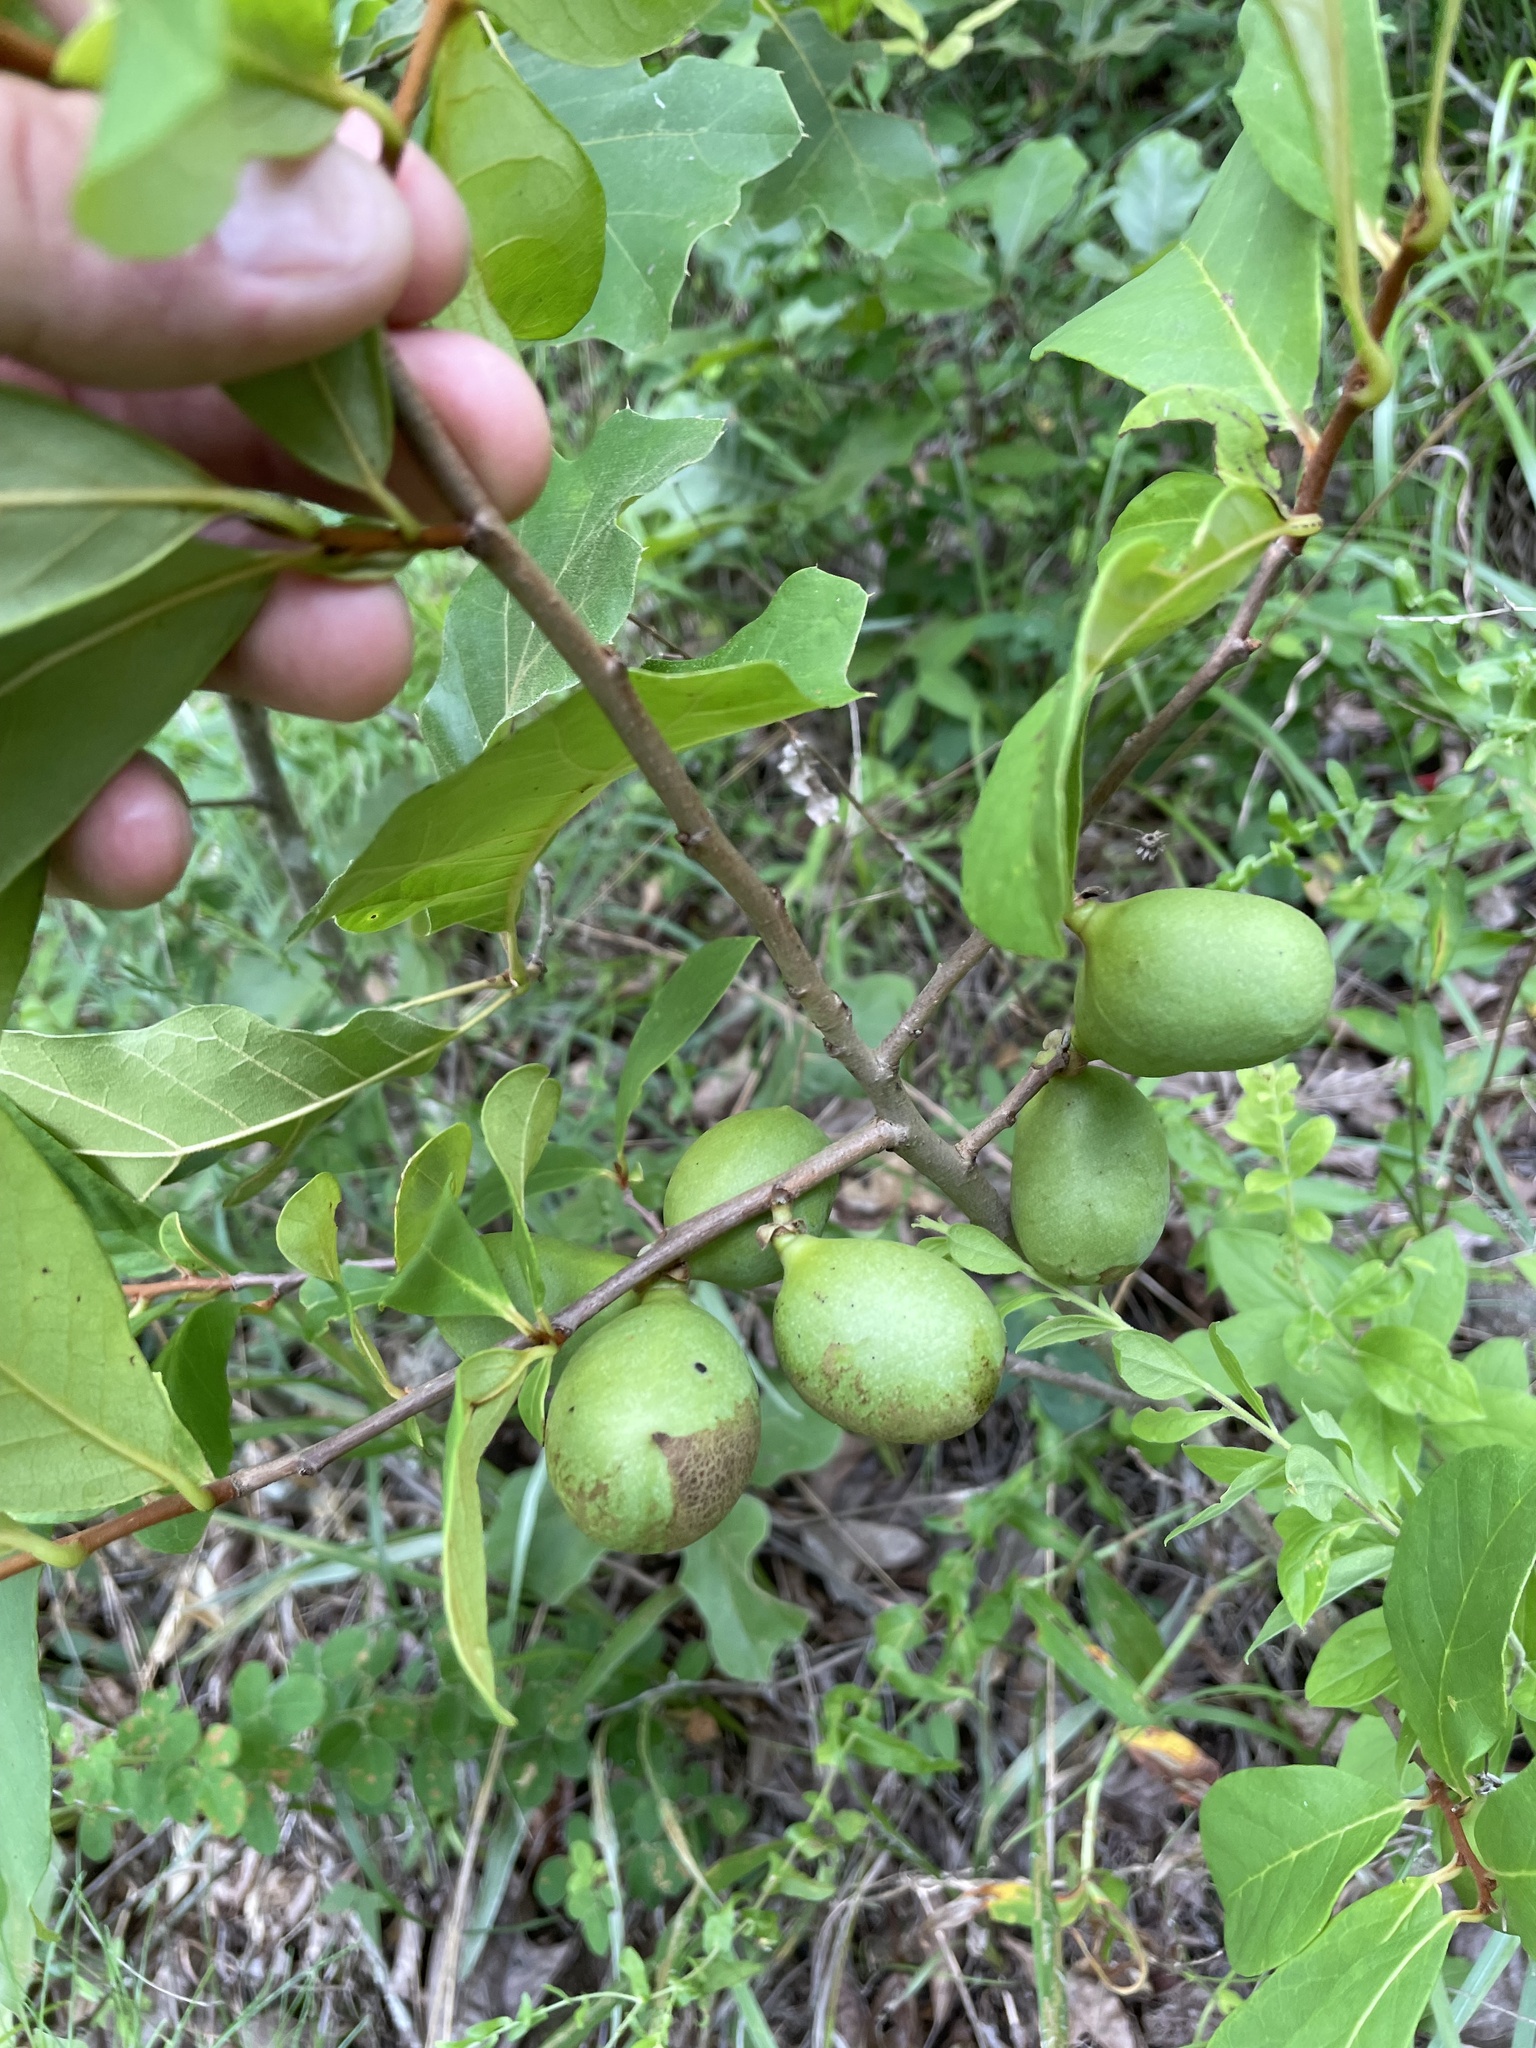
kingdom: Plantae
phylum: Tracheophyta
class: Magnoliopsida
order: Magnoliales
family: Annonaceae
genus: Asimina
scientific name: Asimina parviflora
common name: Dwarf pawpaw
